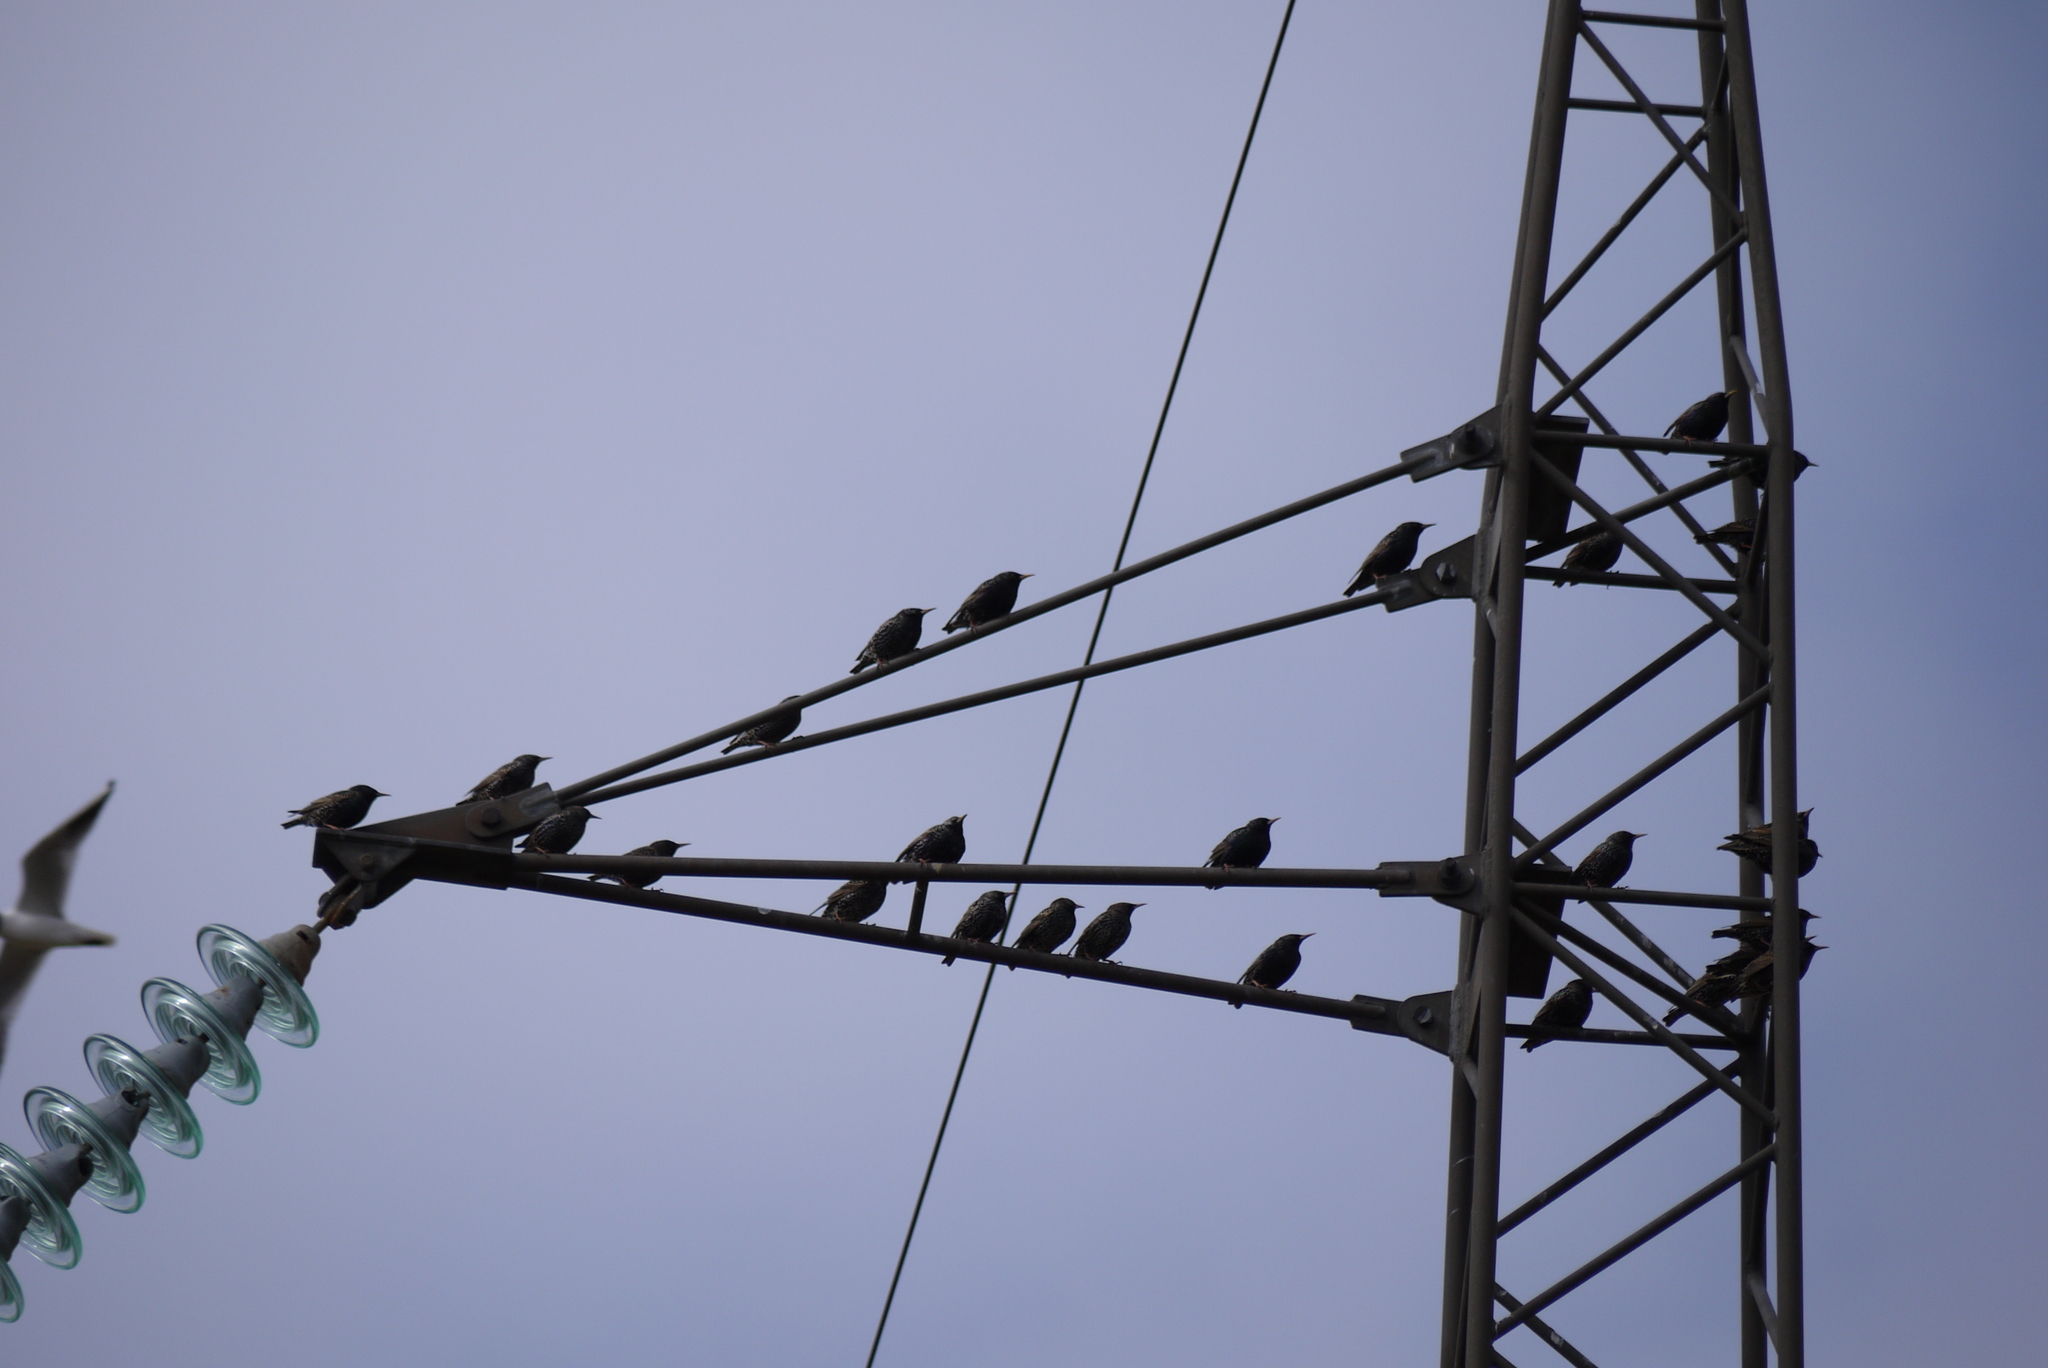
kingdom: Animalia
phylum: Chordata
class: Aves
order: Passeriformes
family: Sturnidae
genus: Sturnus
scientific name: Sturnus vulgaris
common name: Common starling
